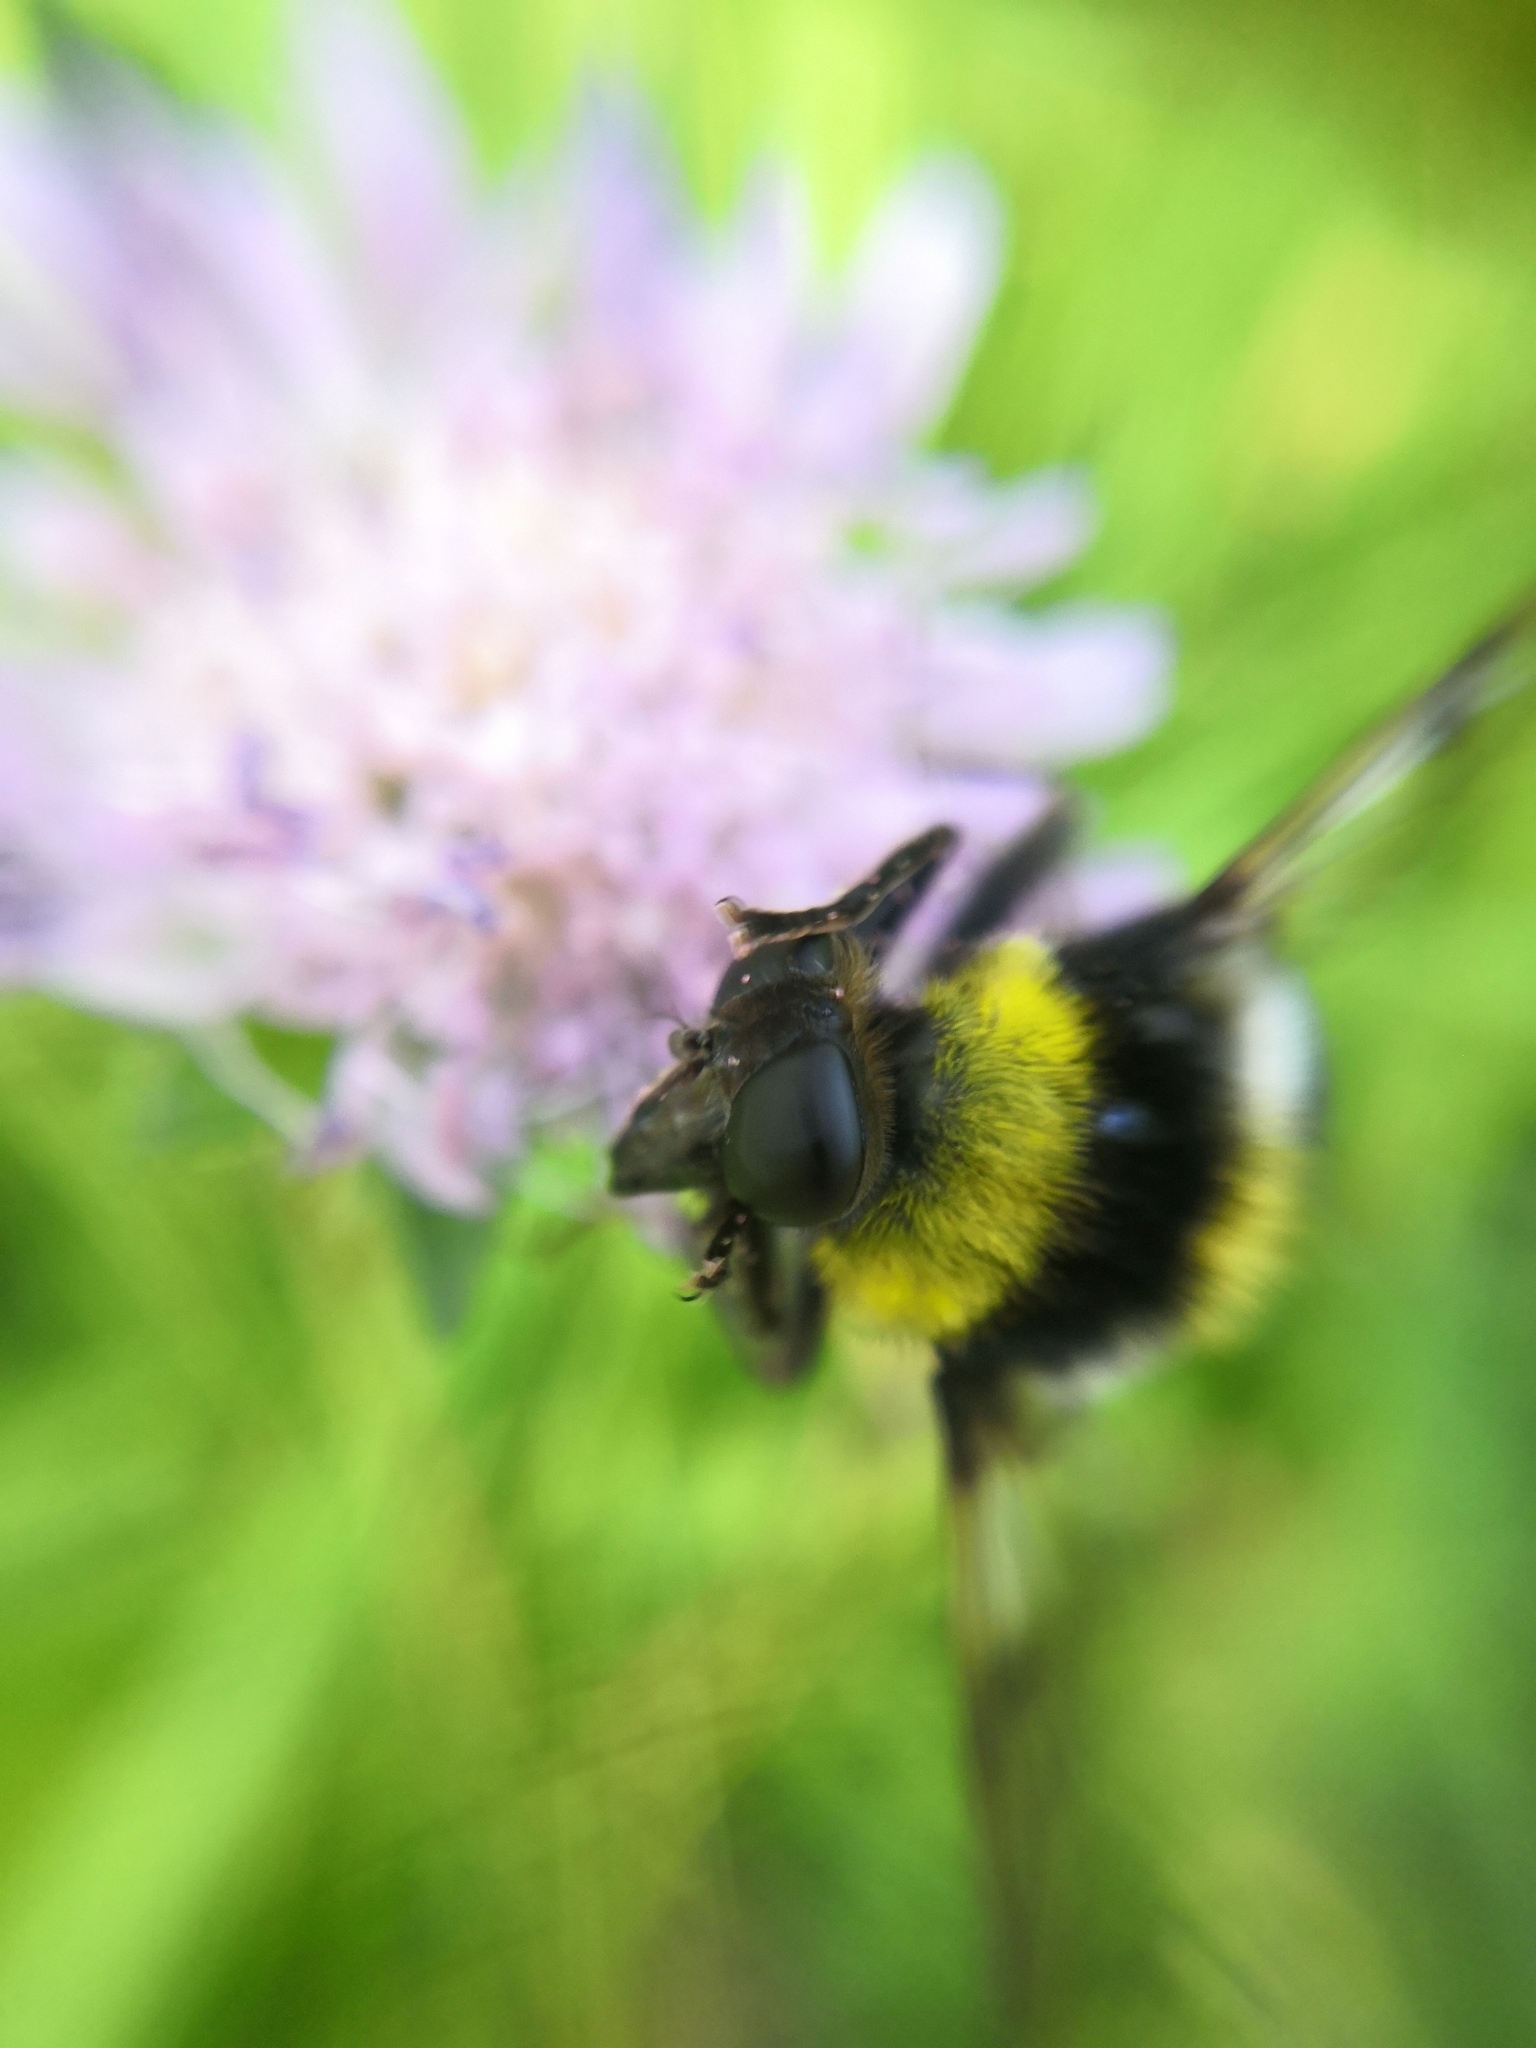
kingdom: Animalia
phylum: Arthropoda
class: Insecta
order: Diptera
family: Syrphidae
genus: Sericomyia
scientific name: Sericomyia bombiformis
